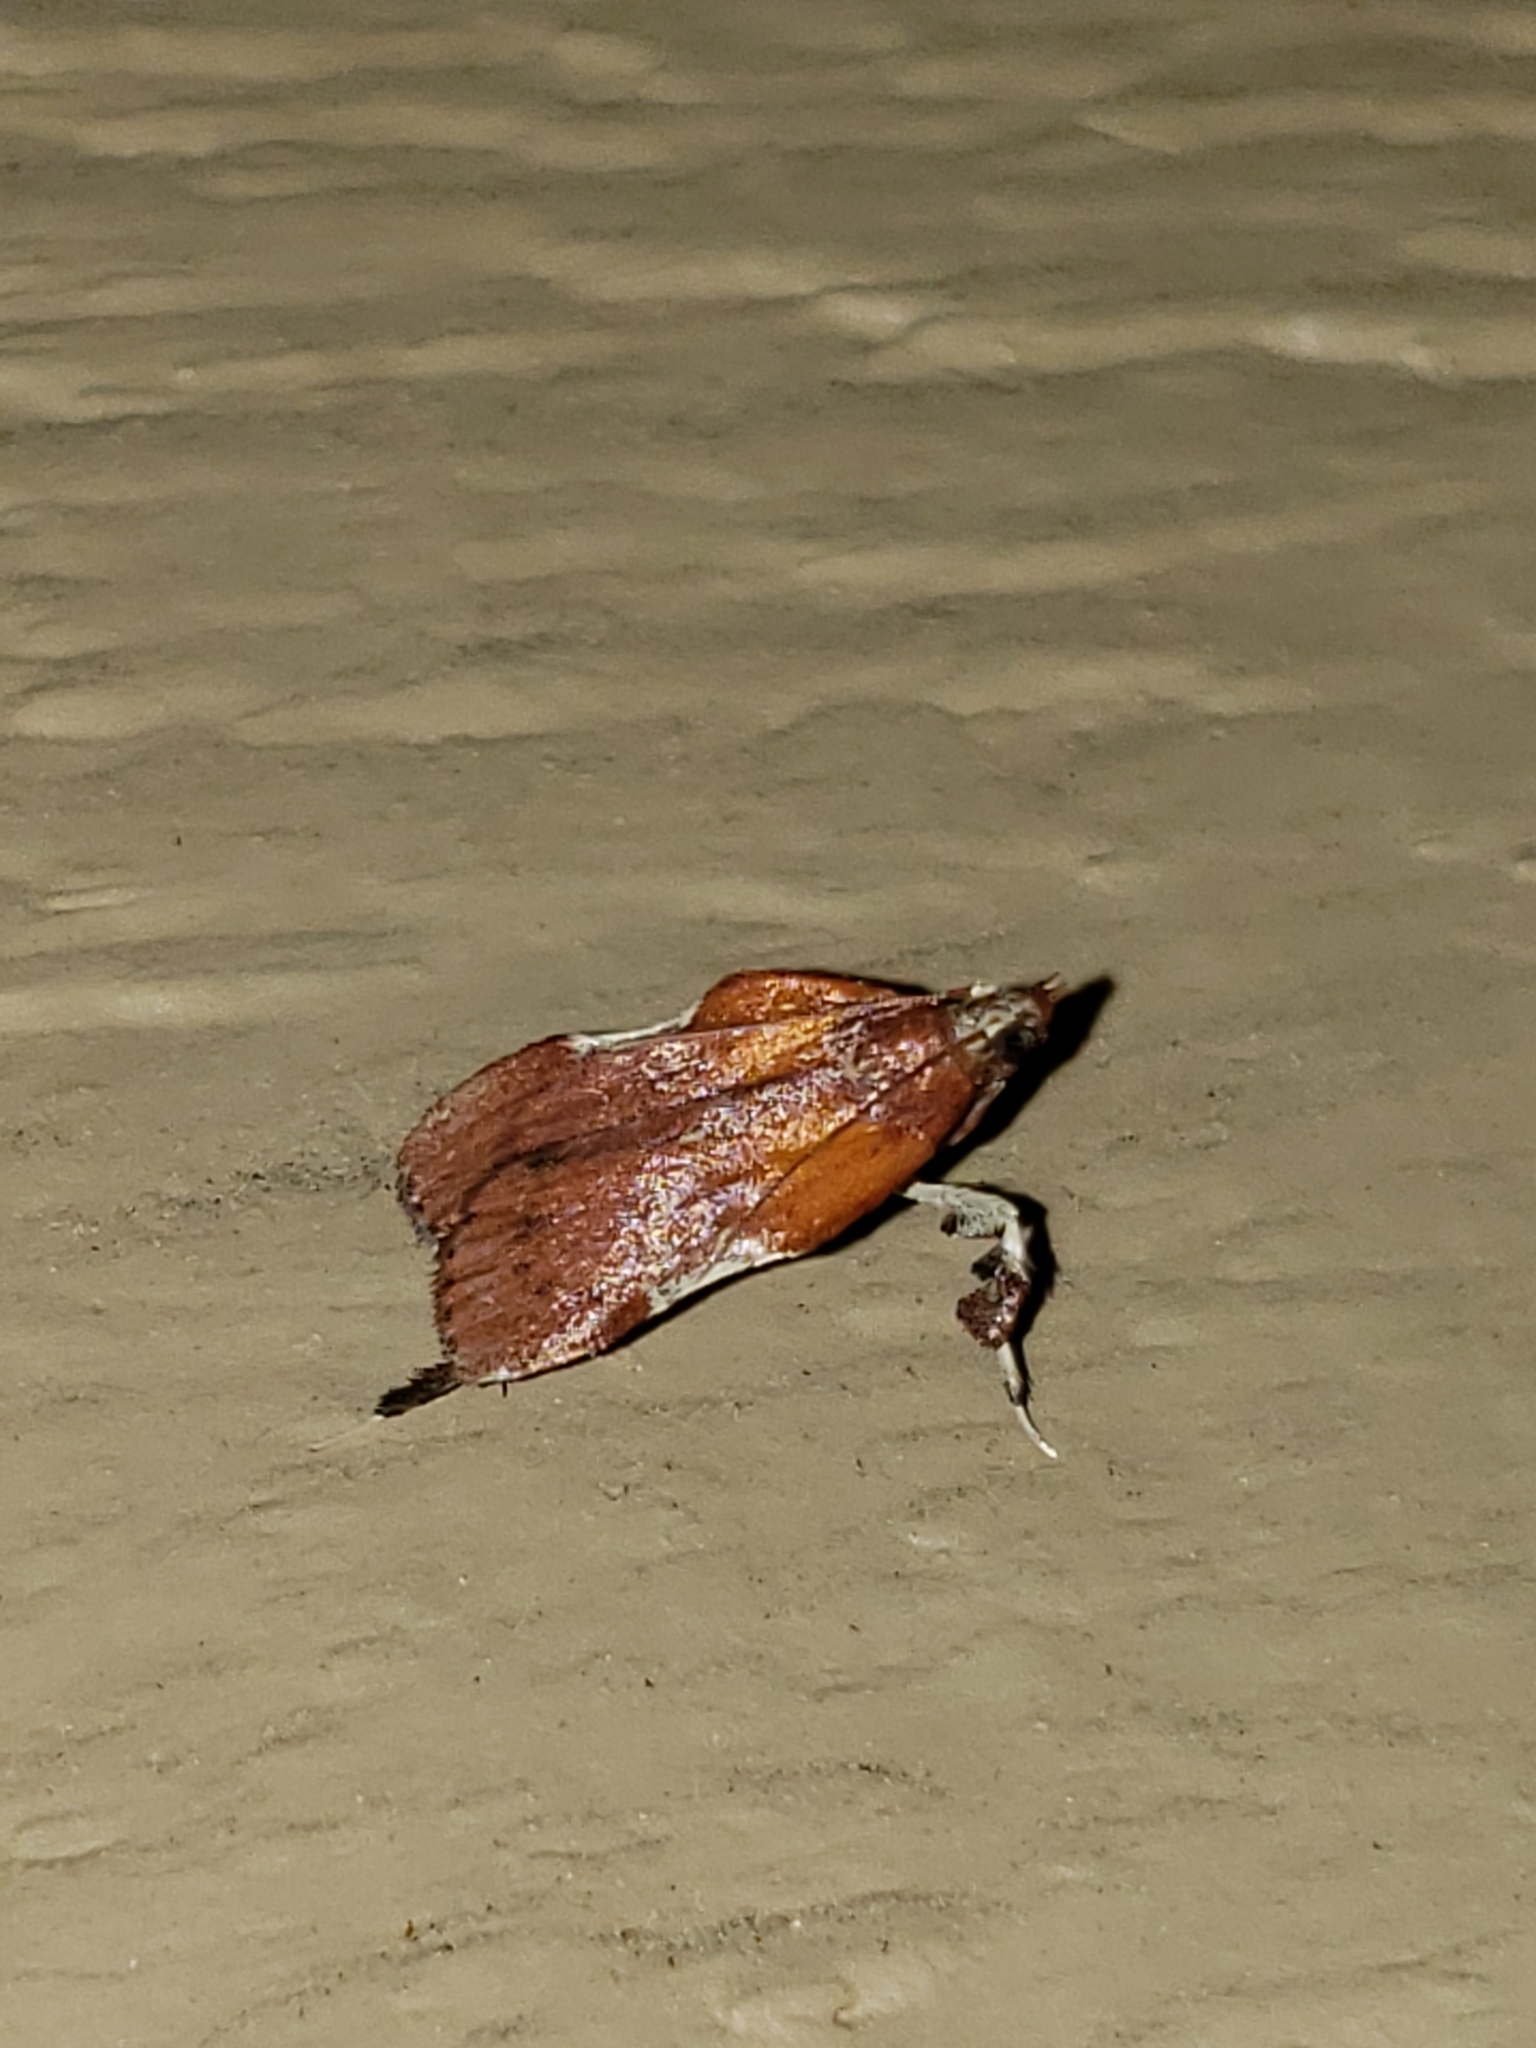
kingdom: Animalia
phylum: Arthropoda
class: Insecta
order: Lepidoptera
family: Pyralidae
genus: Galasa
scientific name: Galasa nigrinodis
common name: Boxwood leaftier moth
